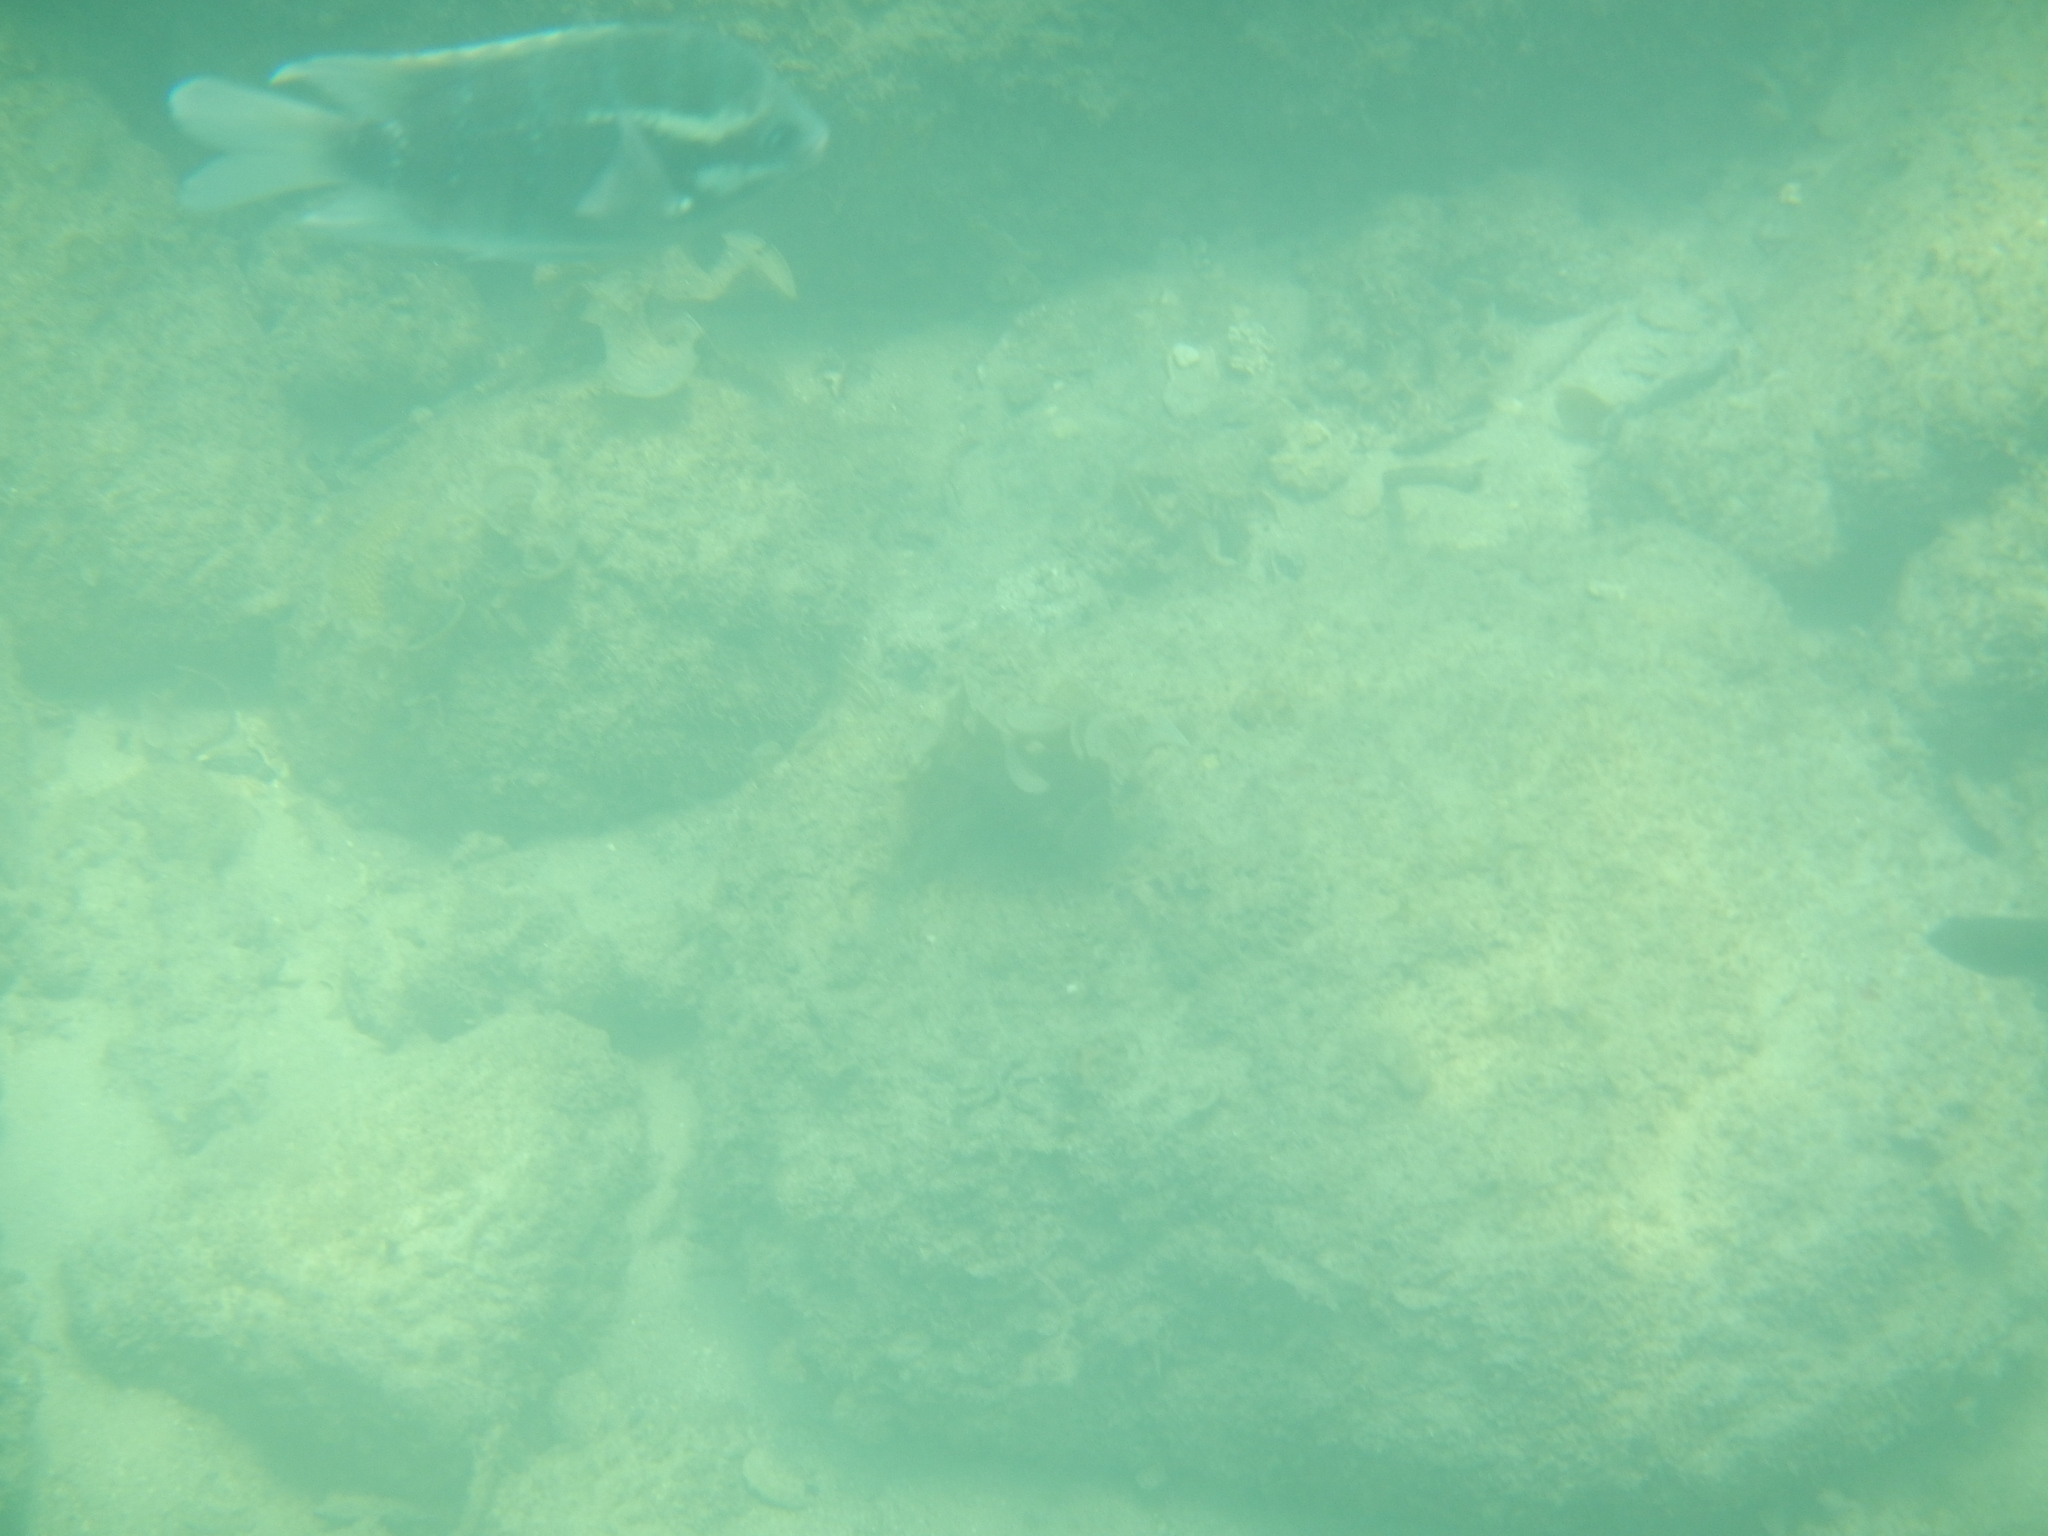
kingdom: Animalia
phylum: Chordata
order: Perciformes
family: Pomacentridae
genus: Abudefduf
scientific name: Abudefduf bengalensis
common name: Bengal sergeant
